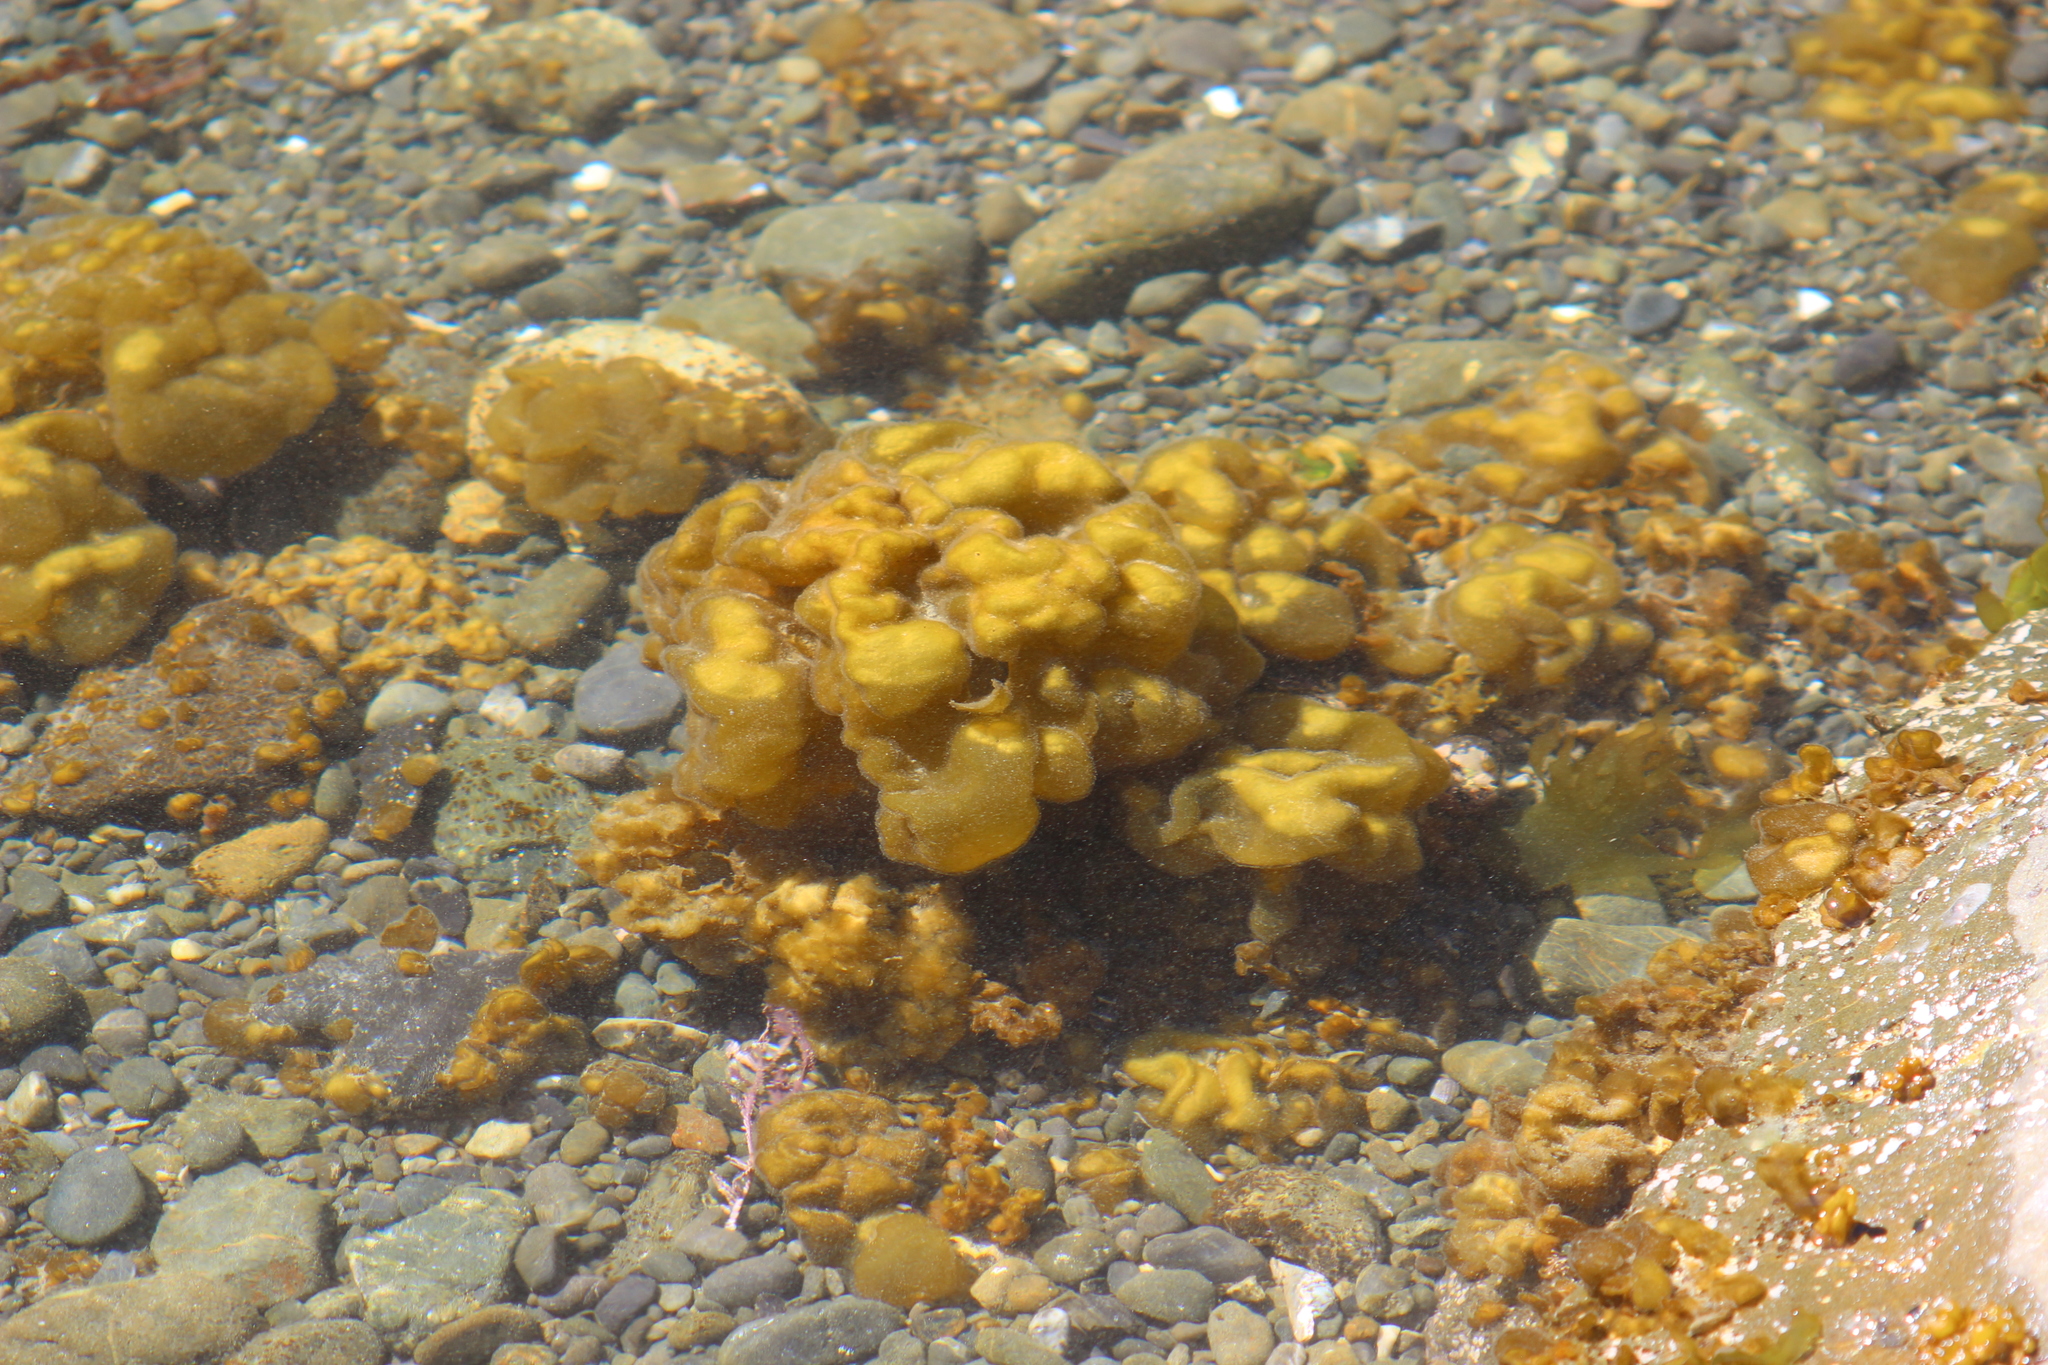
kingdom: Chromista
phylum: Ochrophyta
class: Phaeophyceae
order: Scytosiphonales
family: Scytosiphonaceae
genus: Colpomenia
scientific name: Colpomenia sinuosa
